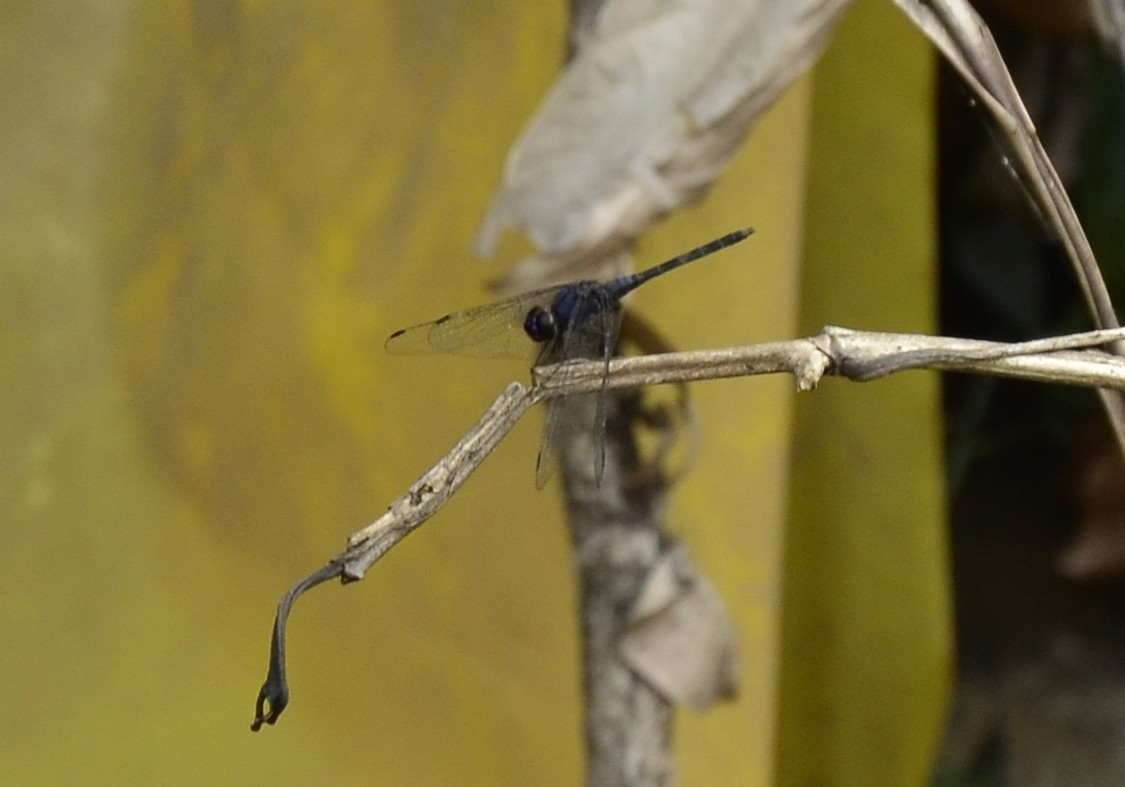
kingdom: Animalia
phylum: Arthropoda
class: Insecta
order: Odonata
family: Libellulidae
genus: Trithemis
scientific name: Trithemis festiva
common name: Indigo dropwing
